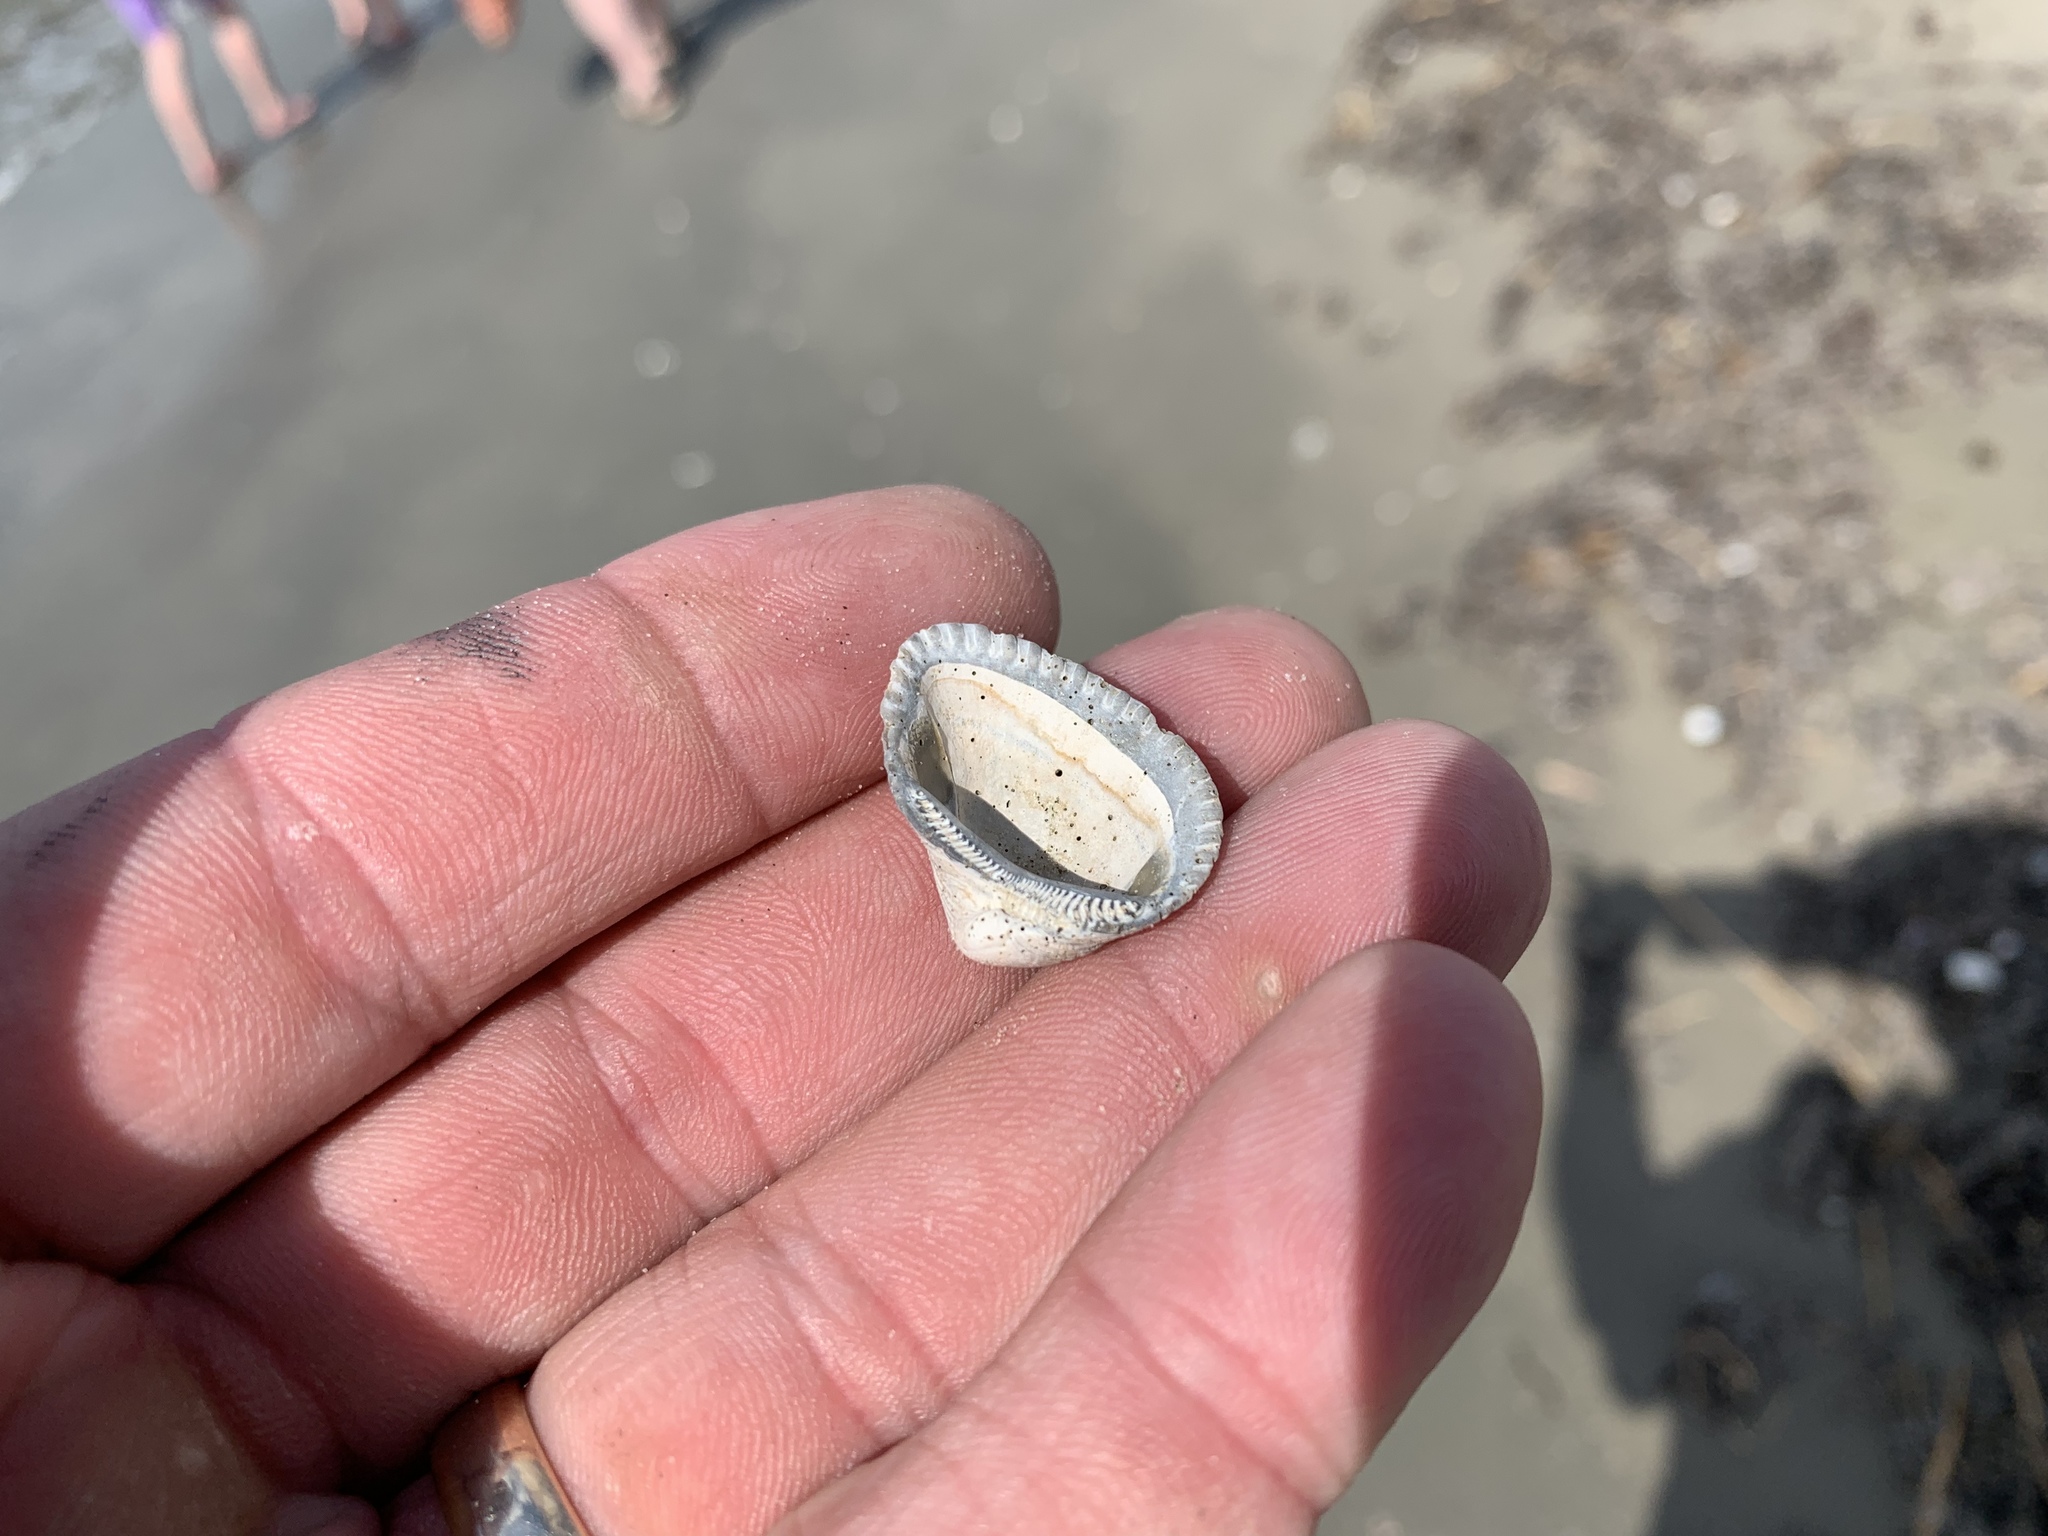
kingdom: Animalia
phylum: Mollusca
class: Bivalvia
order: Arcida
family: Noetiidae
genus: Noetia
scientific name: Noetia ponderosa
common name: Ponderous ark
